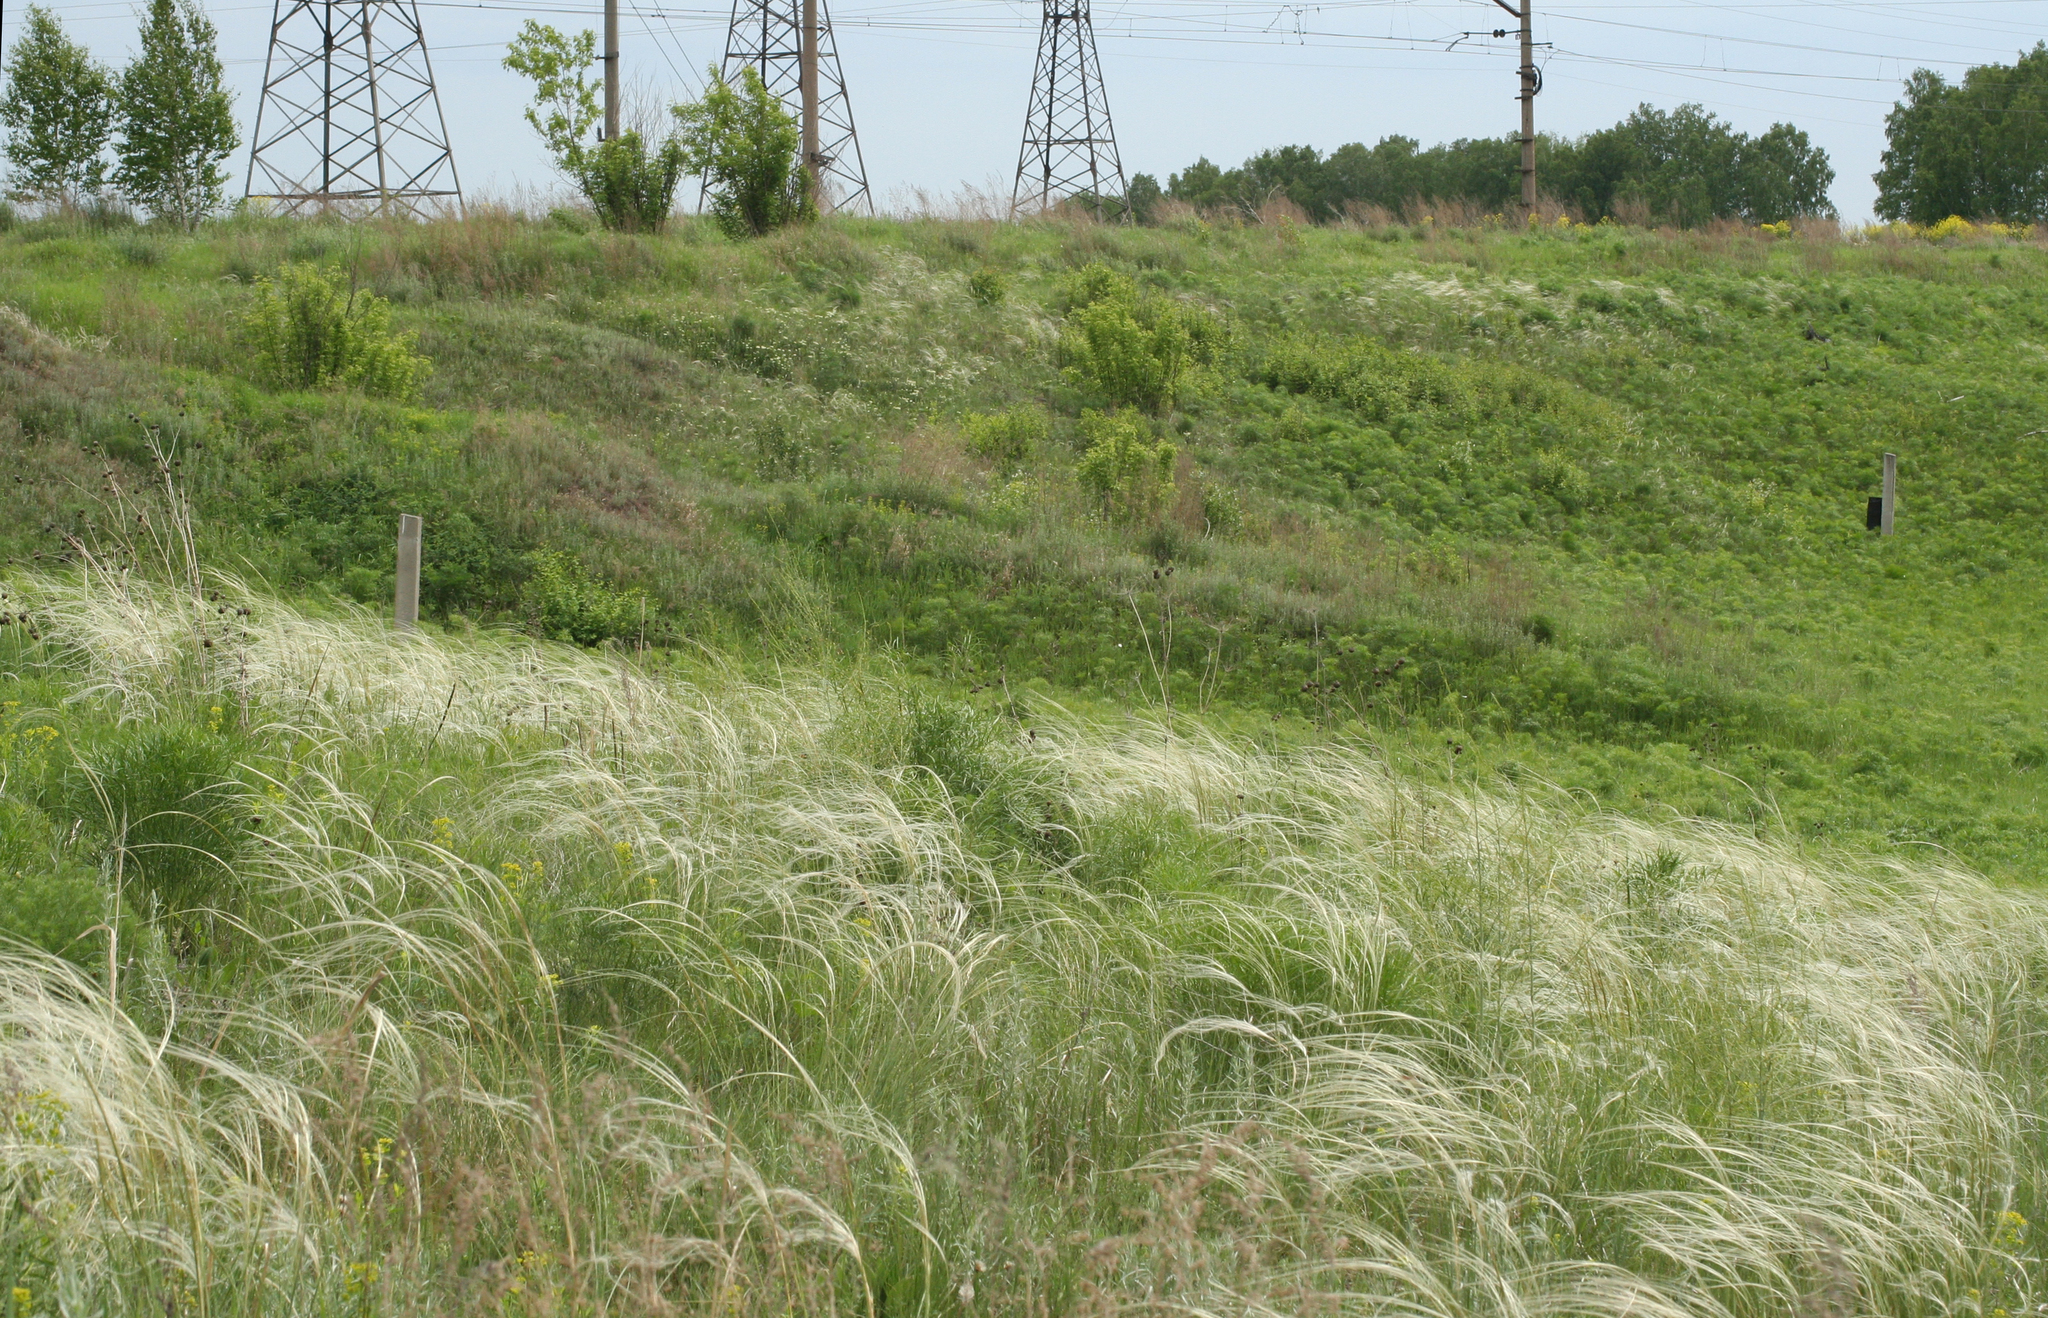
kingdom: Plantae
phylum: Tracheophyta
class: Liliopsida
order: Poales
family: Poaceae
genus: Stipa
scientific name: Stipa pennata
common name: European feather grass
